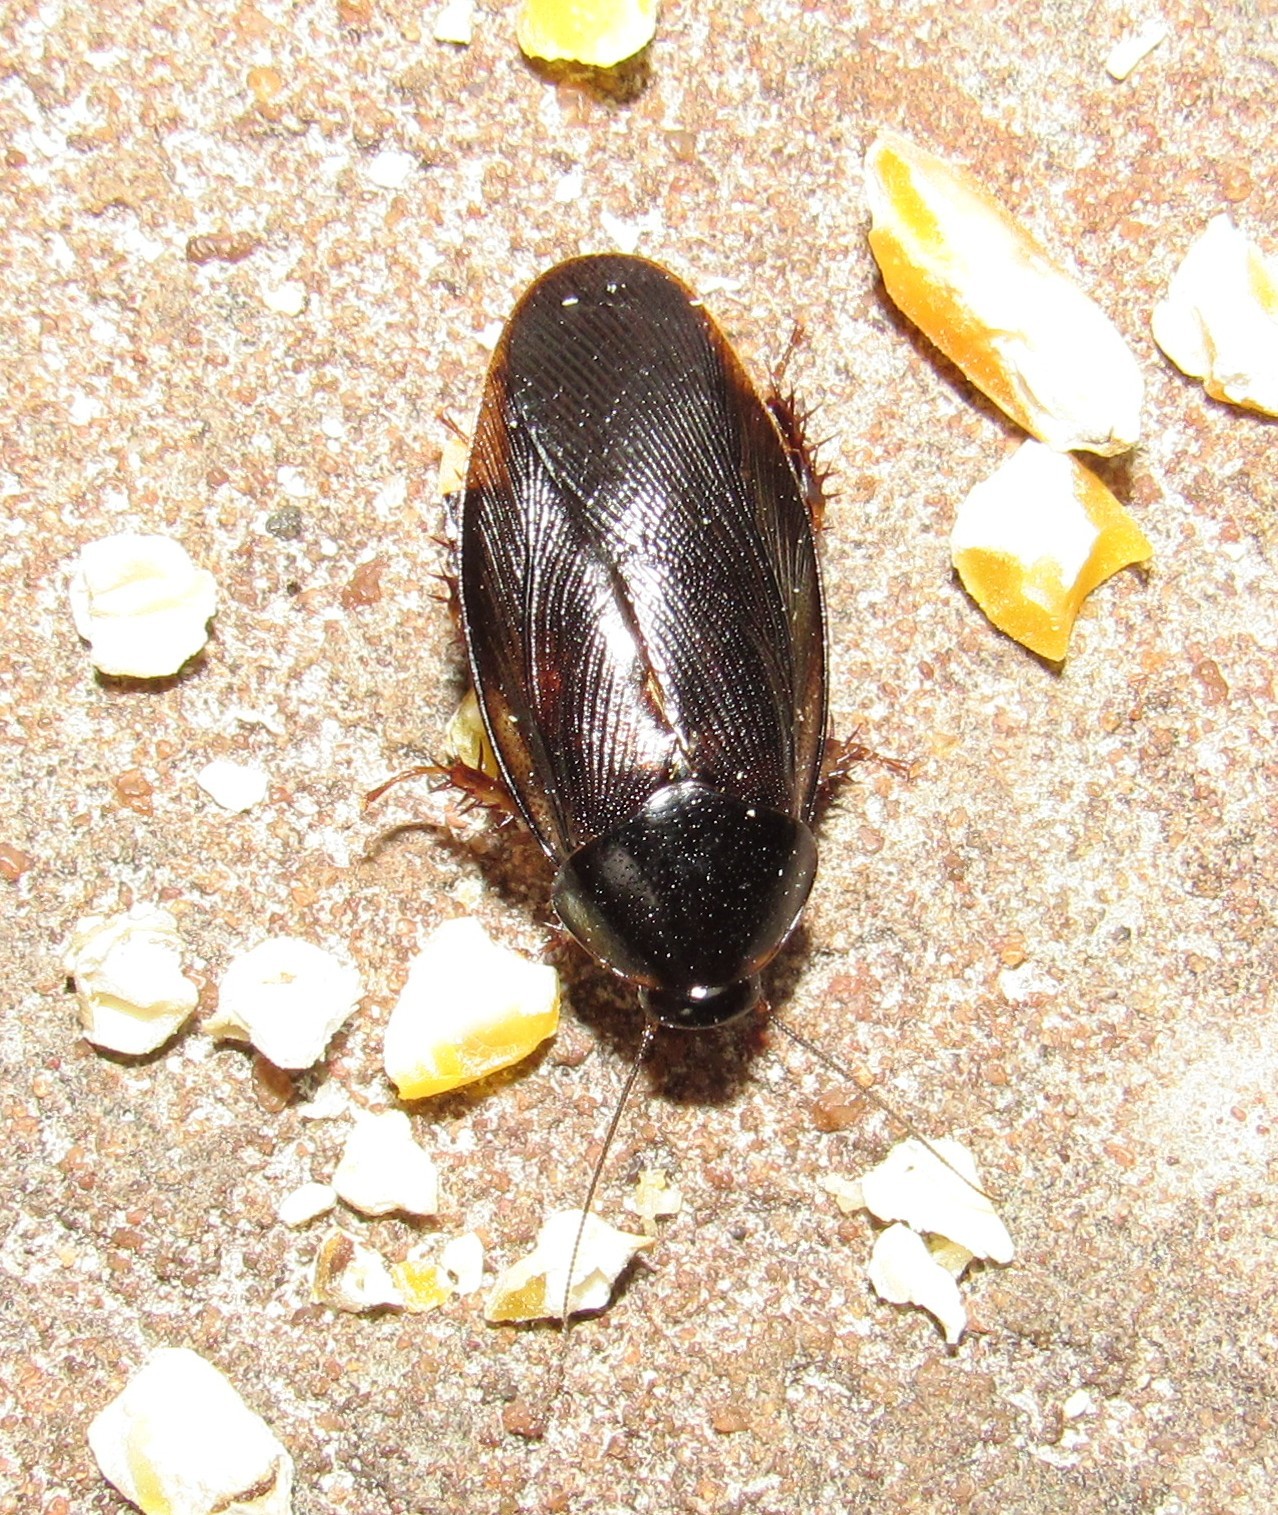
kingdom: Animalia
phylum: Arthropoda
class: Insecta
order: Blattodea
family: Blaberidae
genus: Pycnoscelus
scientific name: Pycnoscelus surinamensis
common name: Surinam cockroach
